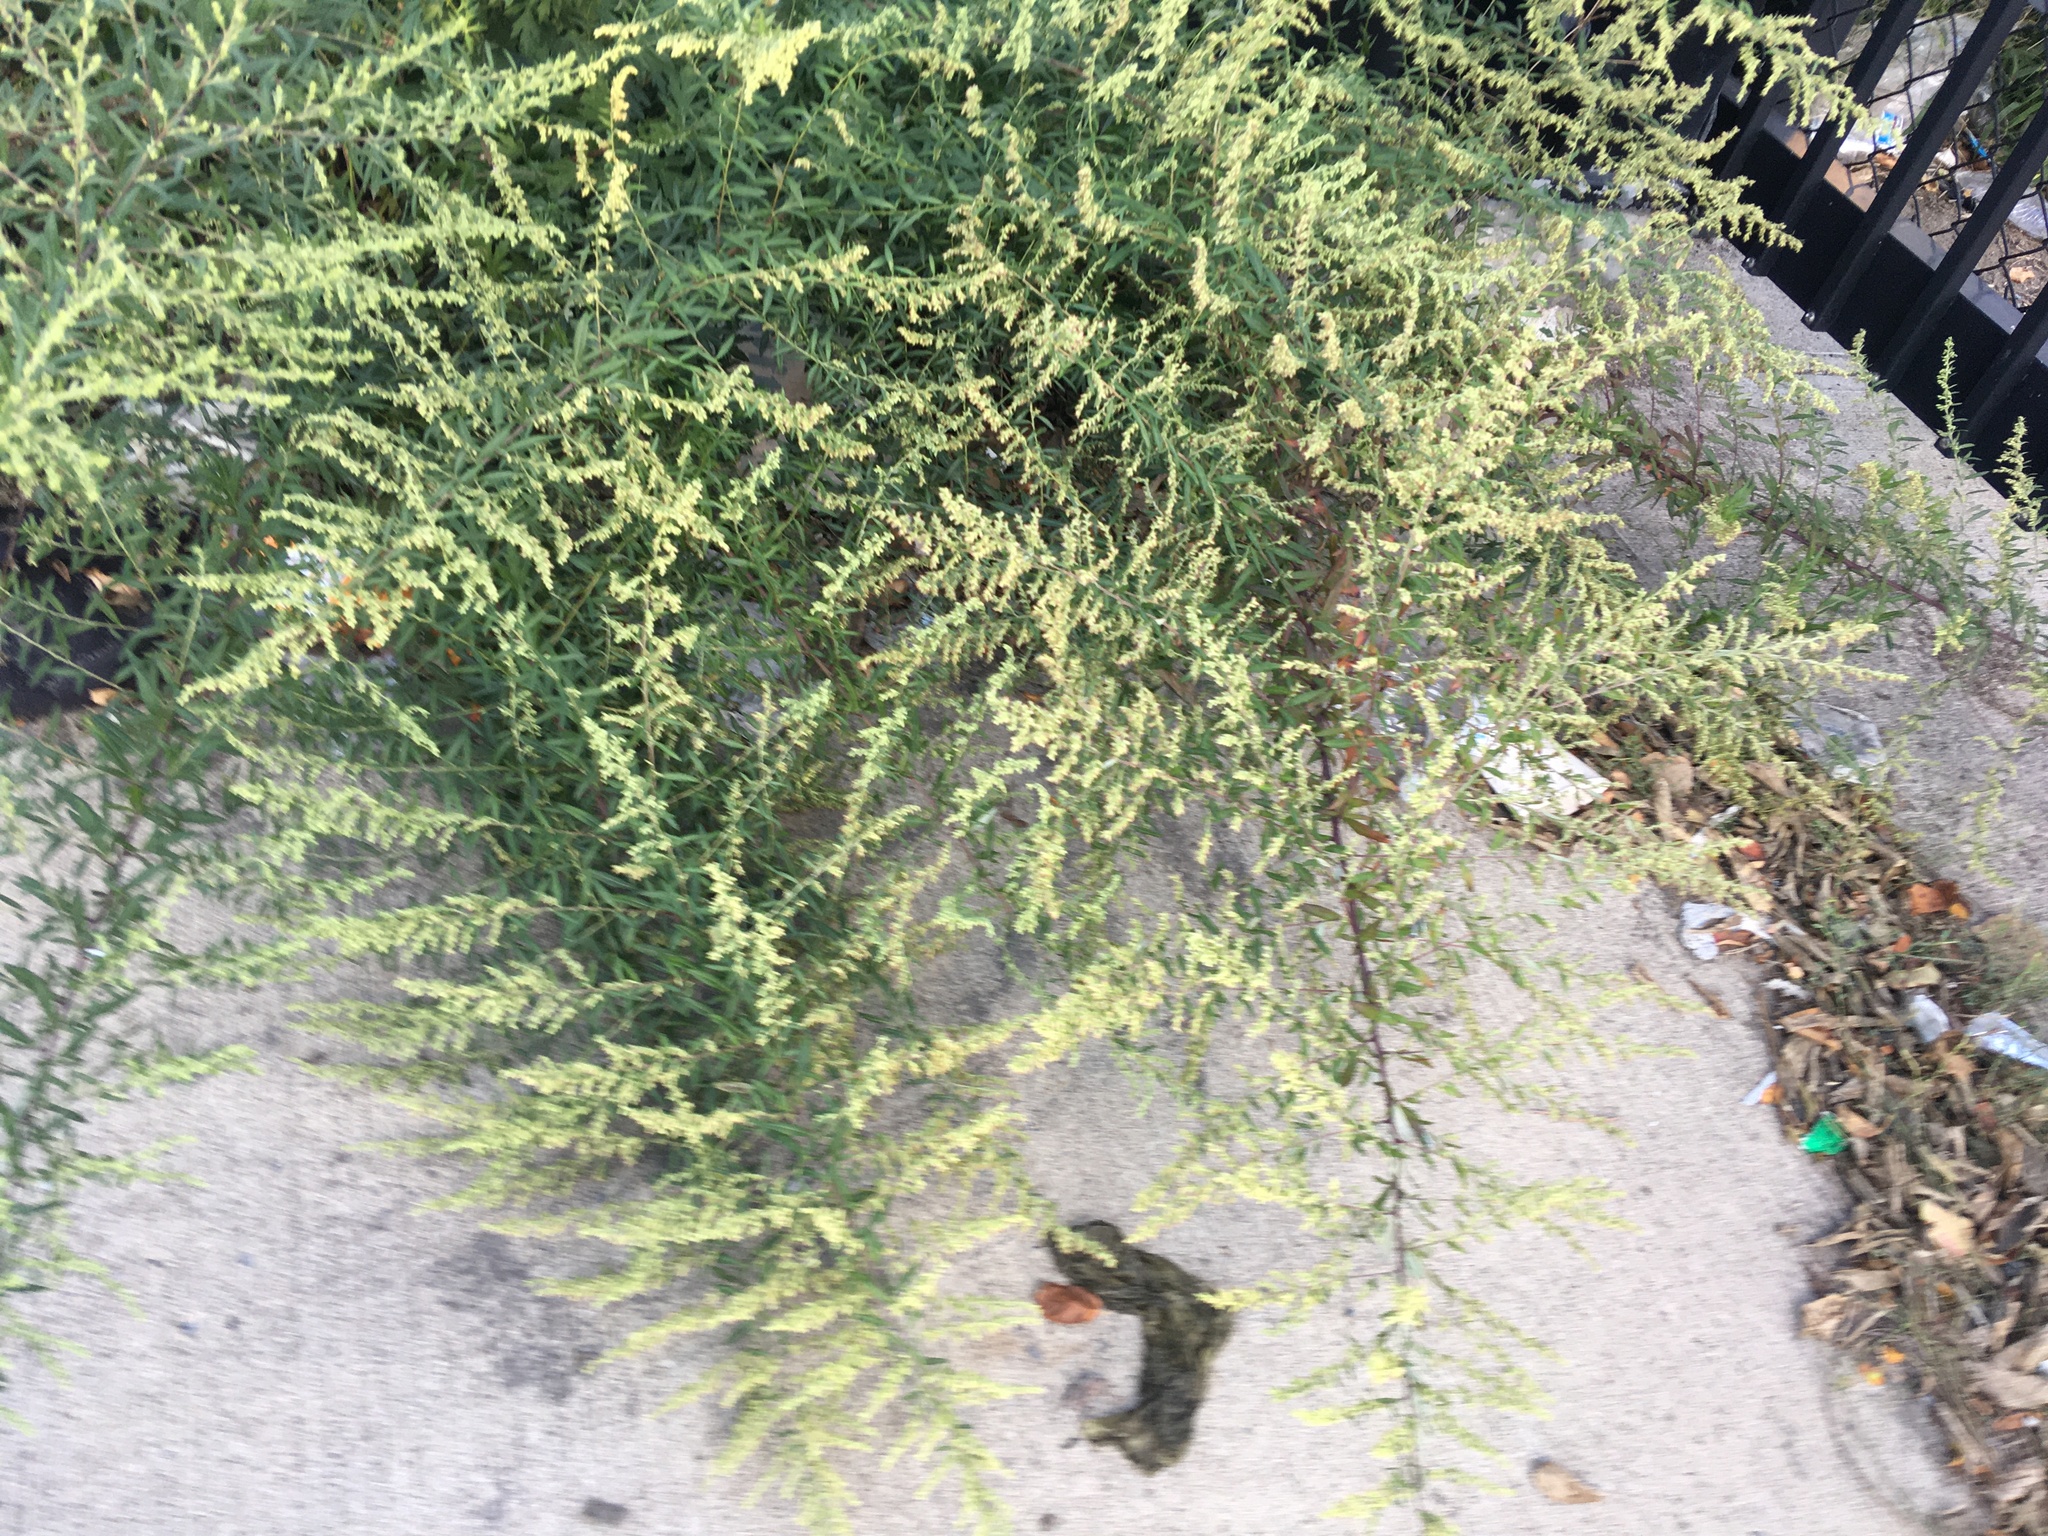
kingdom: Plantae
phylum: Tracheophyta
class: Magnoliopsida
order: Asterales
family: Asteraceae
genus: Artemisia
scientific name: Artemisia vulgaris
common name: Mugwort
